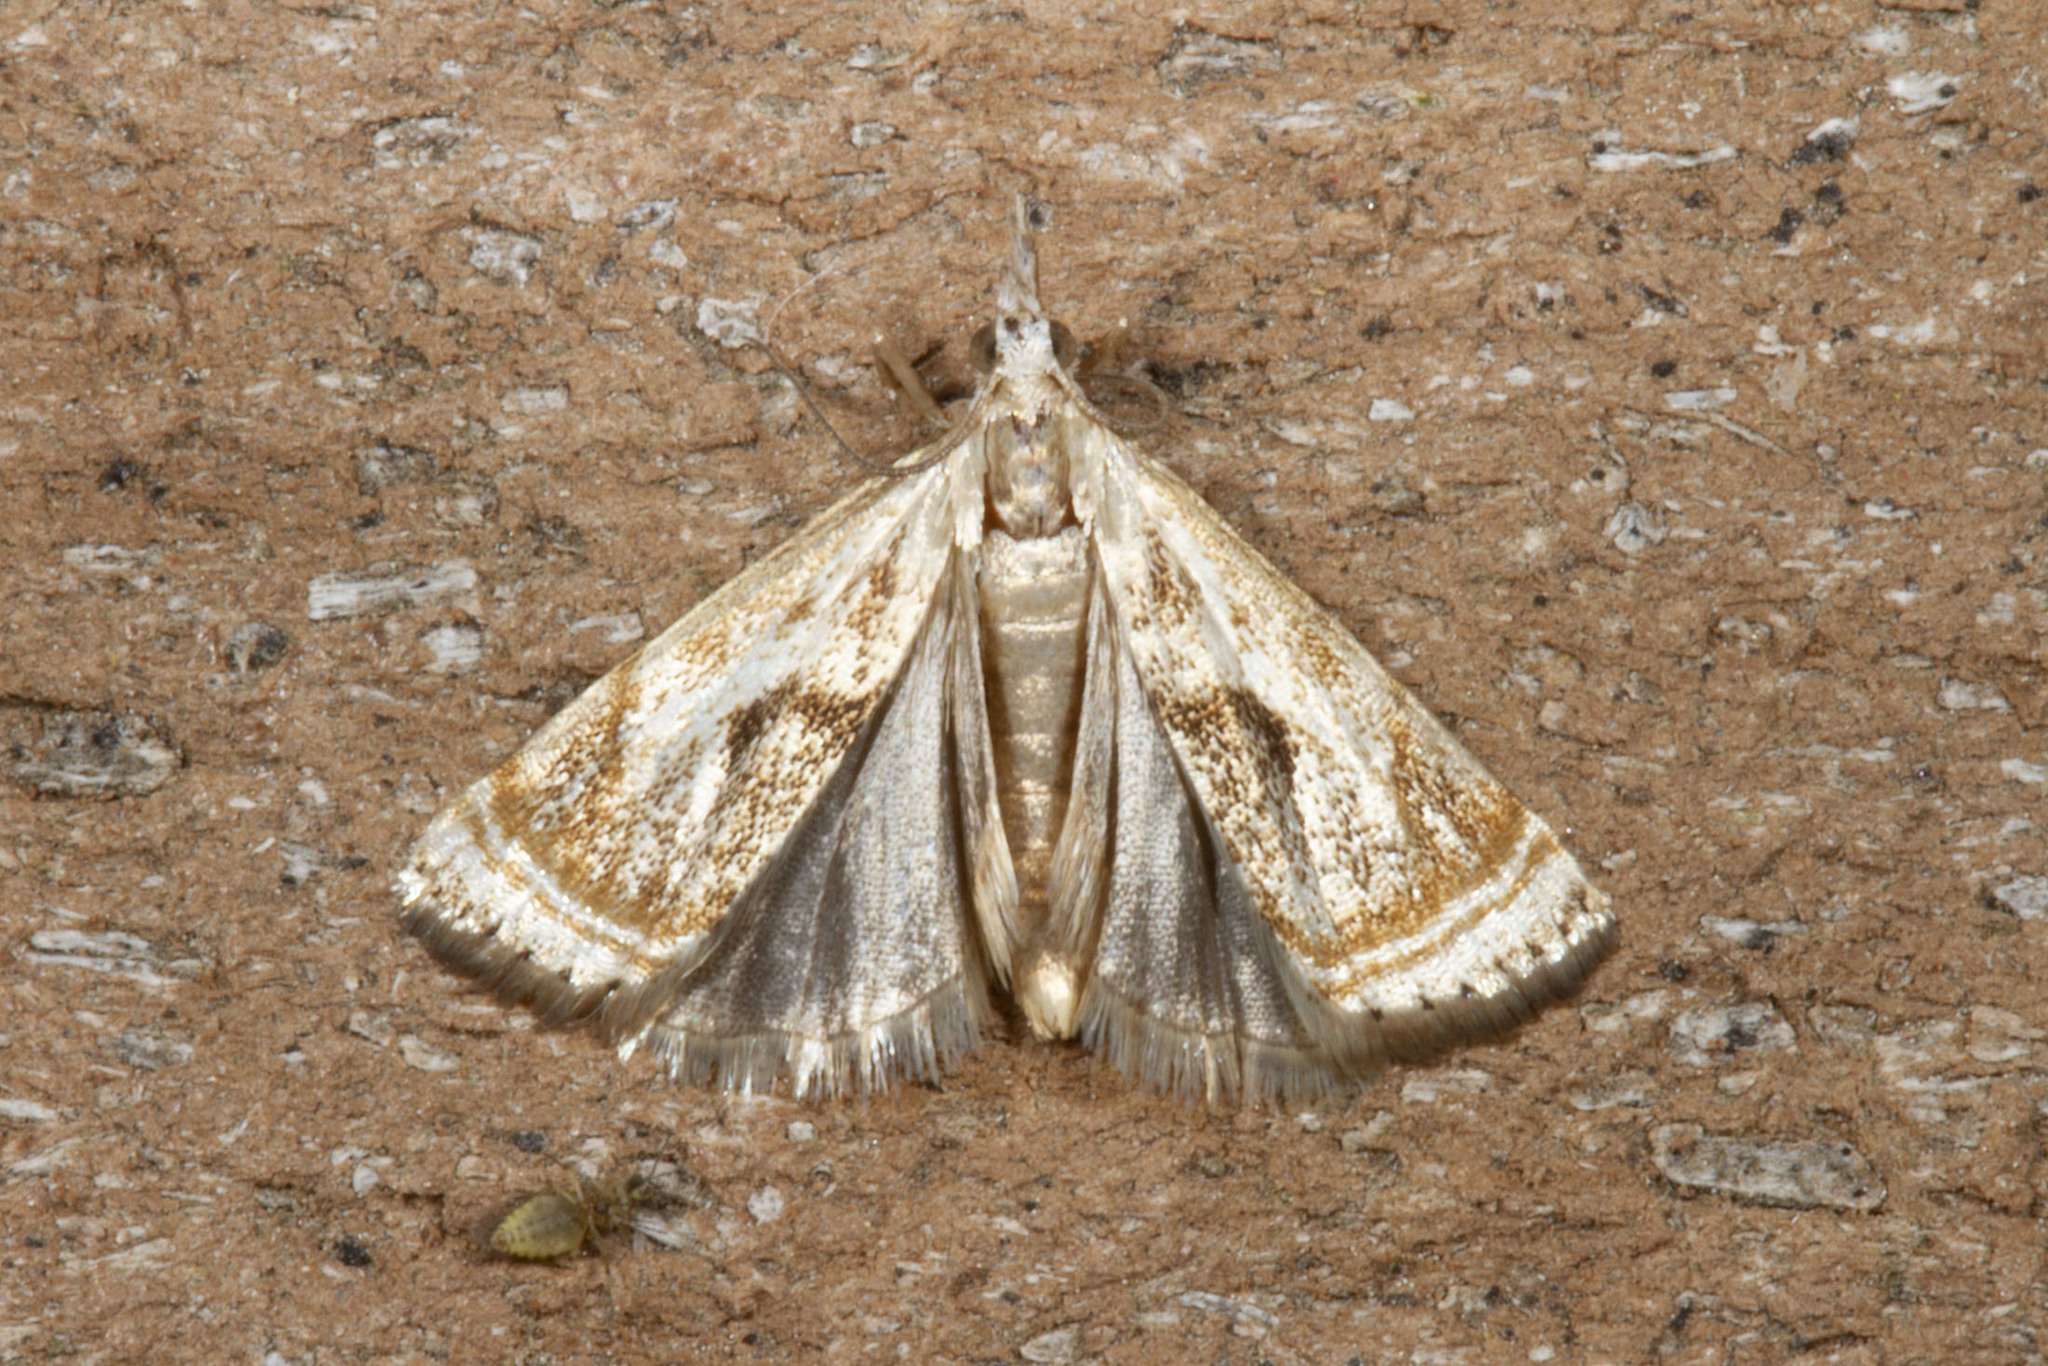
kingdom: Animalia
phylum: Arthropoda
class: Insecta
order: Lepidoptera
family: Crambidae
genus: Microcrambus
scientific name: Microcrambus elegans
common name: Elegant grass-veneer
